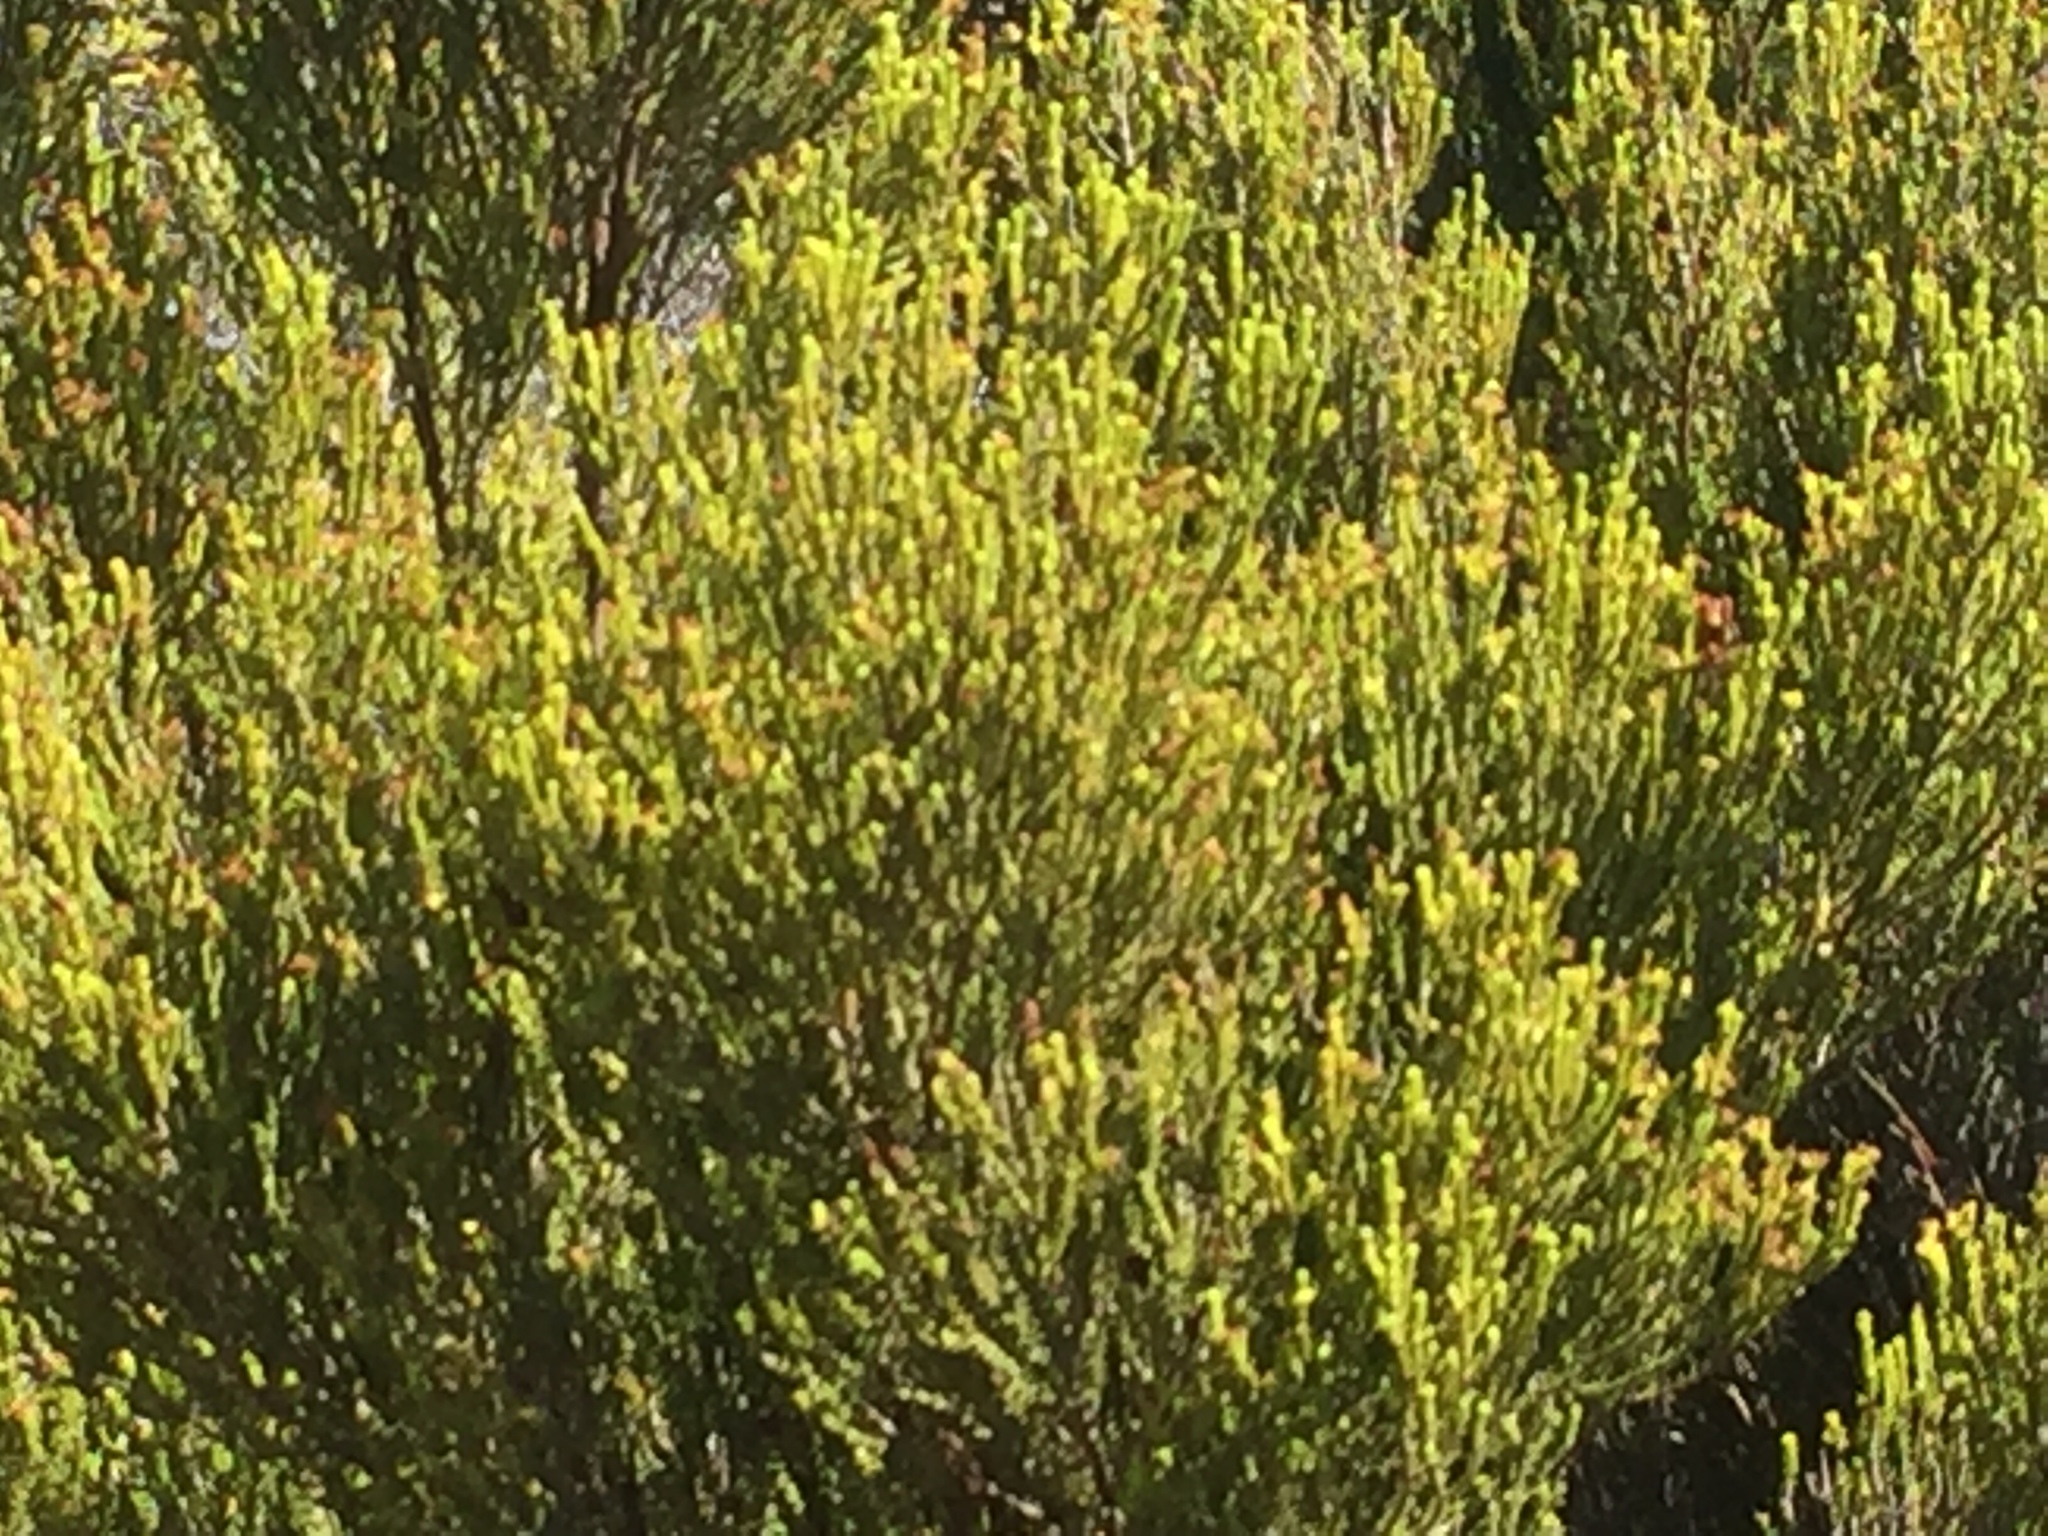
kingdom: Plantae
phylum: Tracheophyta
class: Magnoliopsida
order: Ericales
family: Ericaceae
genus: Erica
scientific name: Erica tristis
